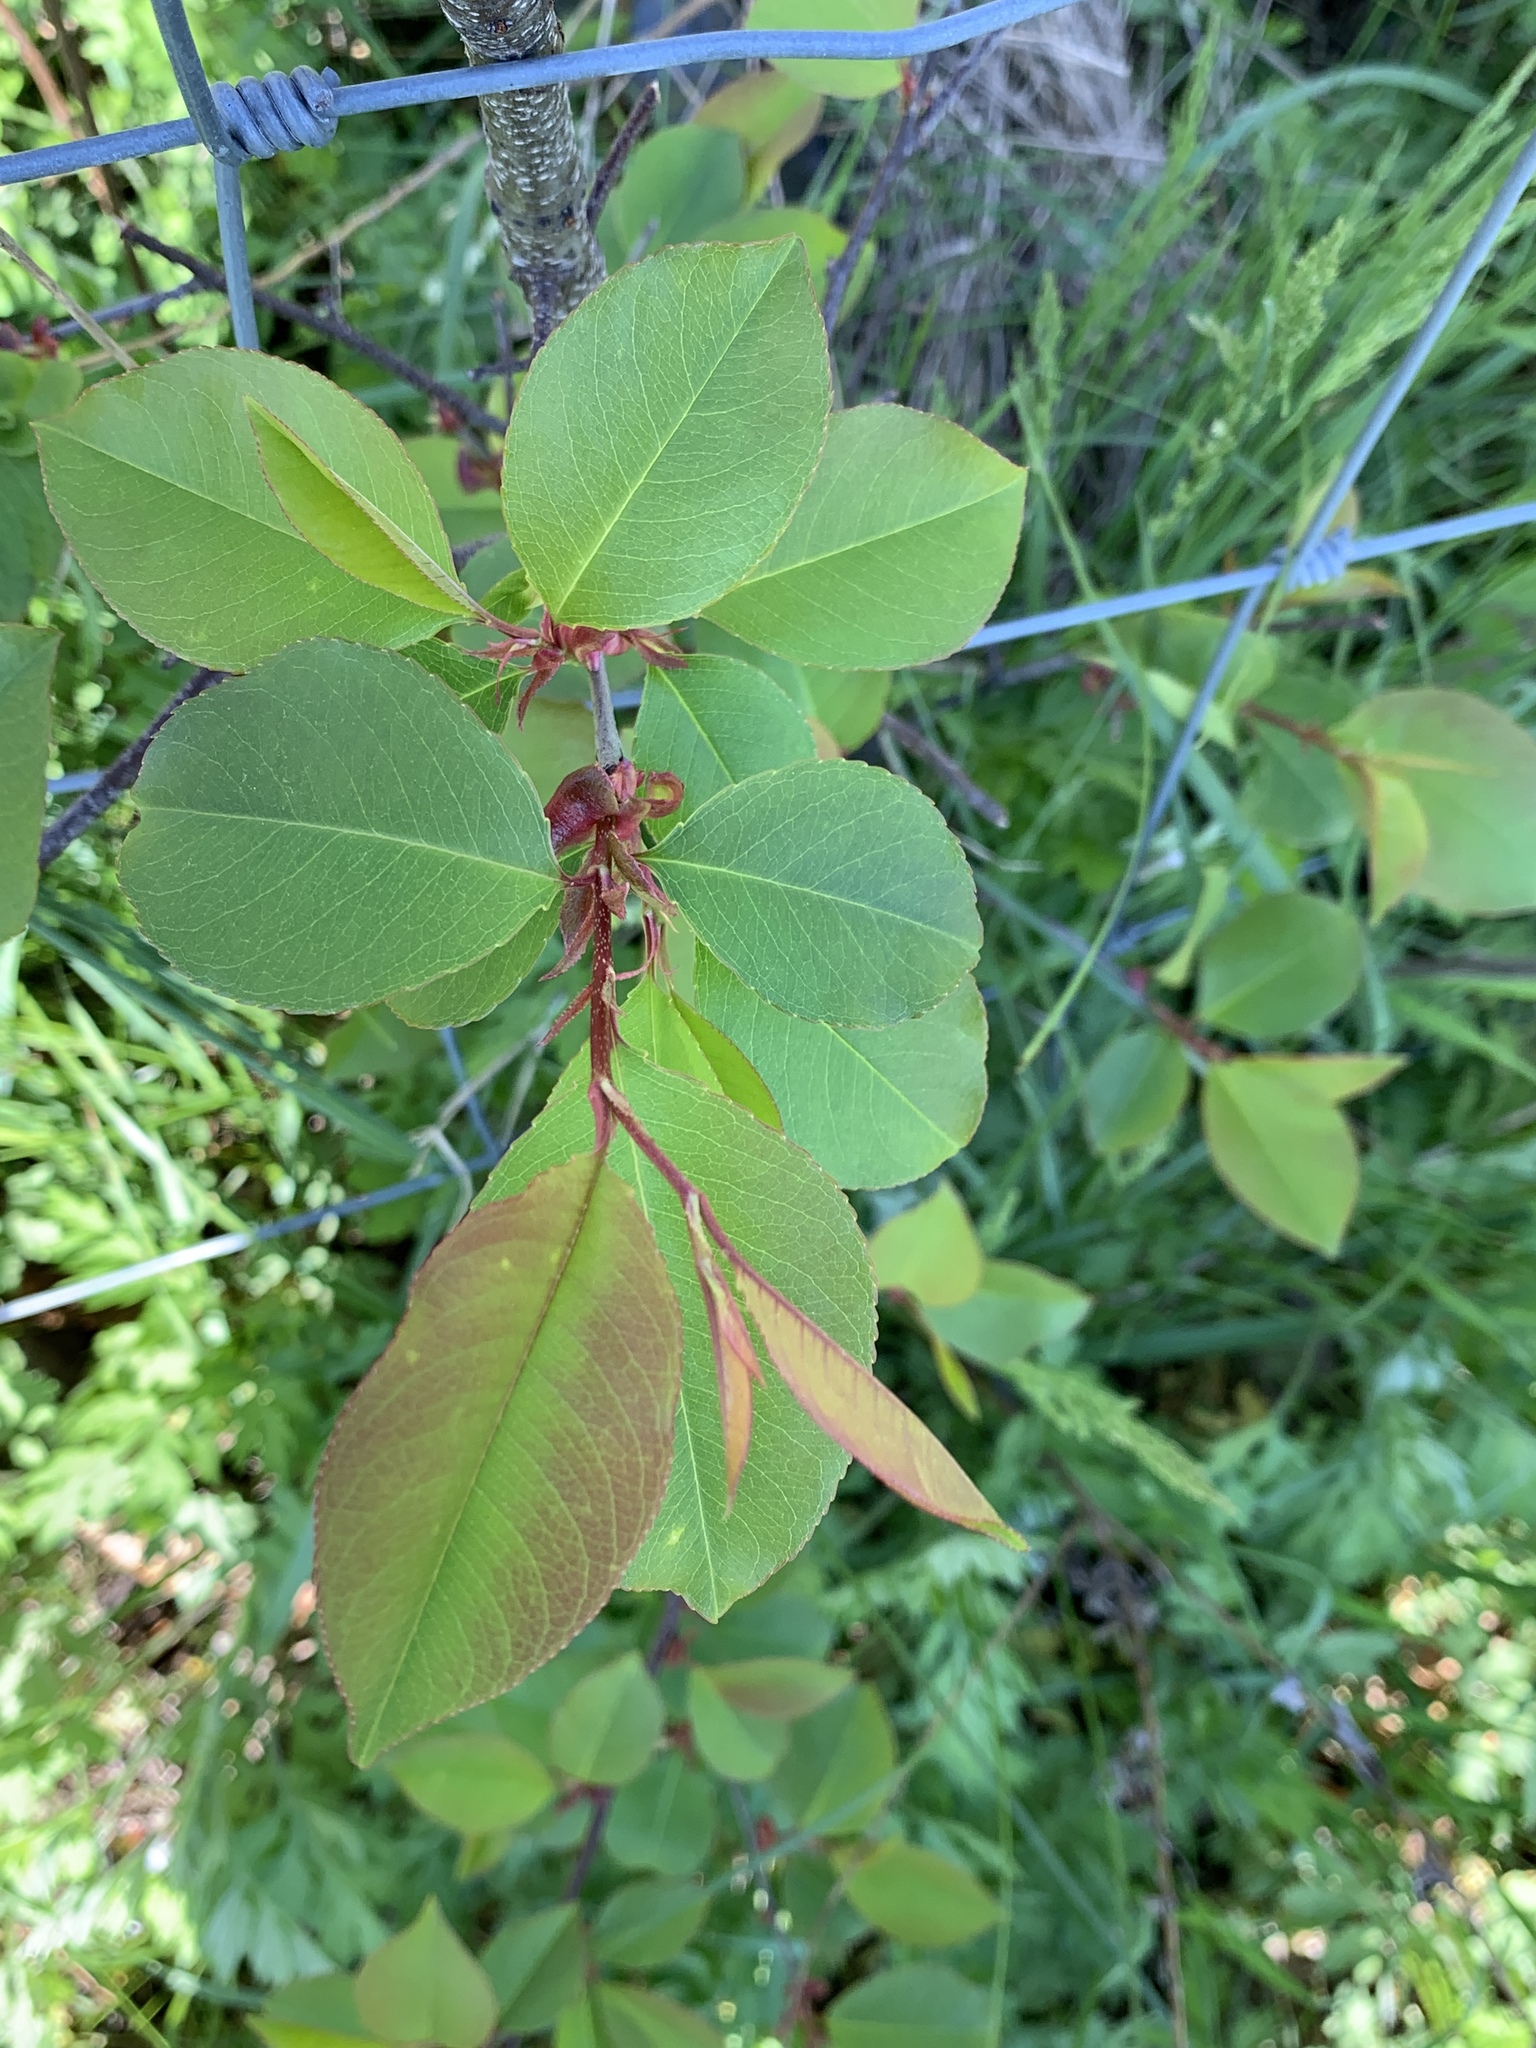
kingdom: Plantae
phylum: Tracheophyta
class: Magnoliopsida
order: Rosales
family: Rosaceae
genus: Prunus
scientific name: Prunus serotina
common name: Black cherry
